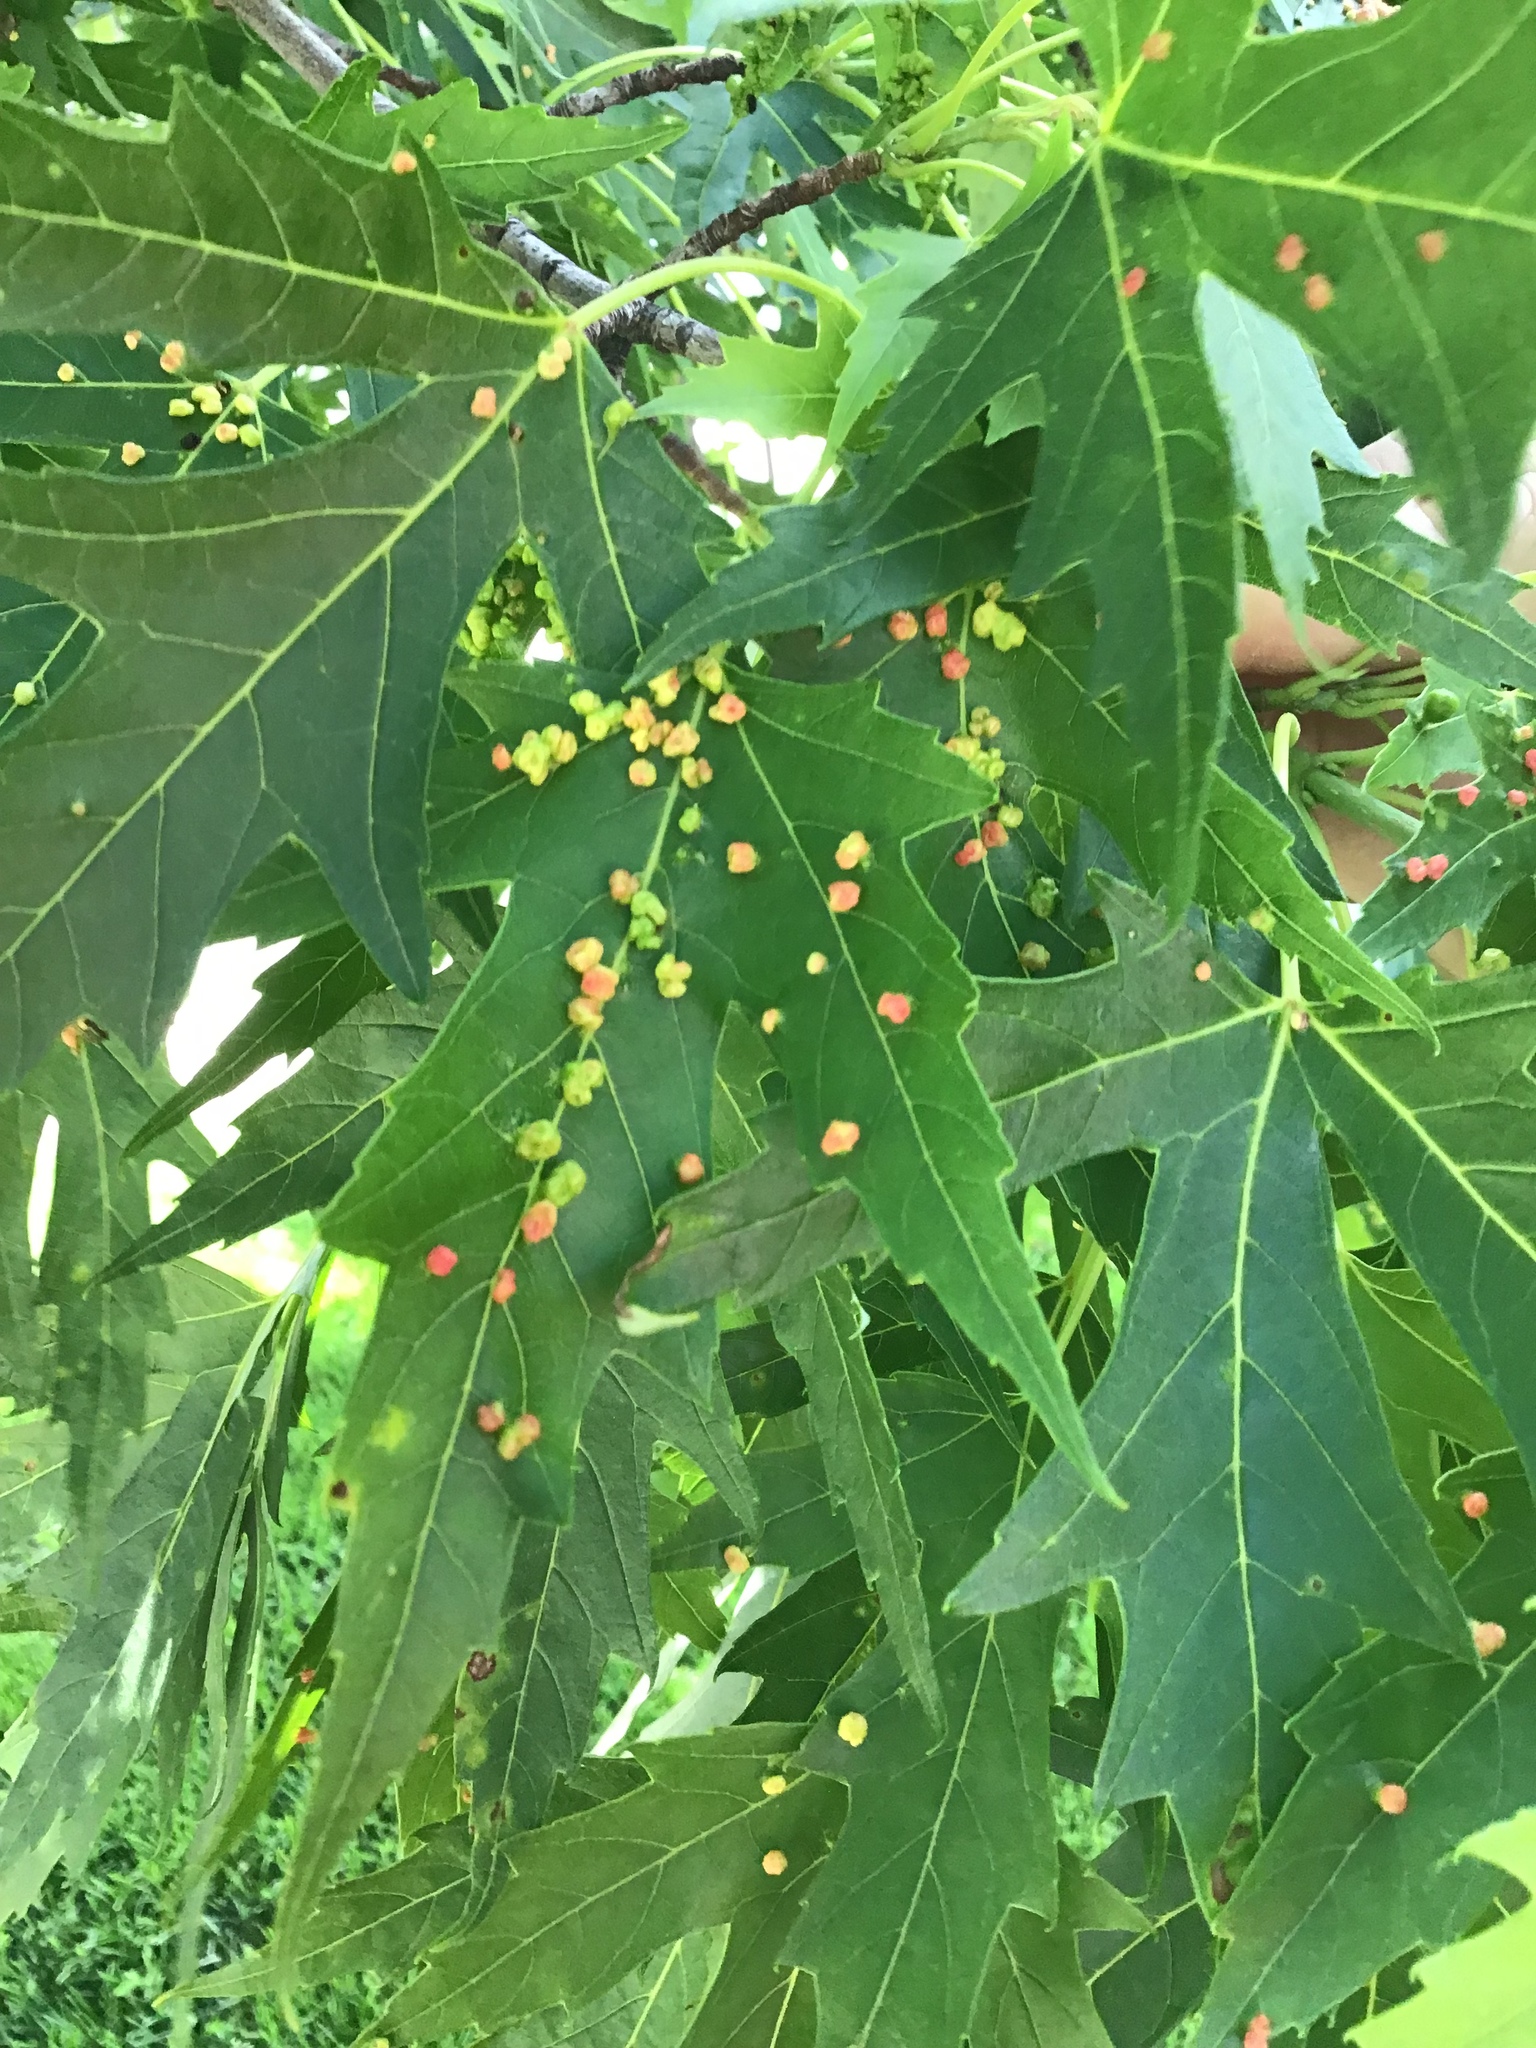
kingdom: Animalia
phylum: Arthropoda
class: Arachnida
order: Trombidiformes
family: Eriophyidae
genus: Vasates
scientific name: Vasates quadripedes
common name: Maple bladder gall mite
